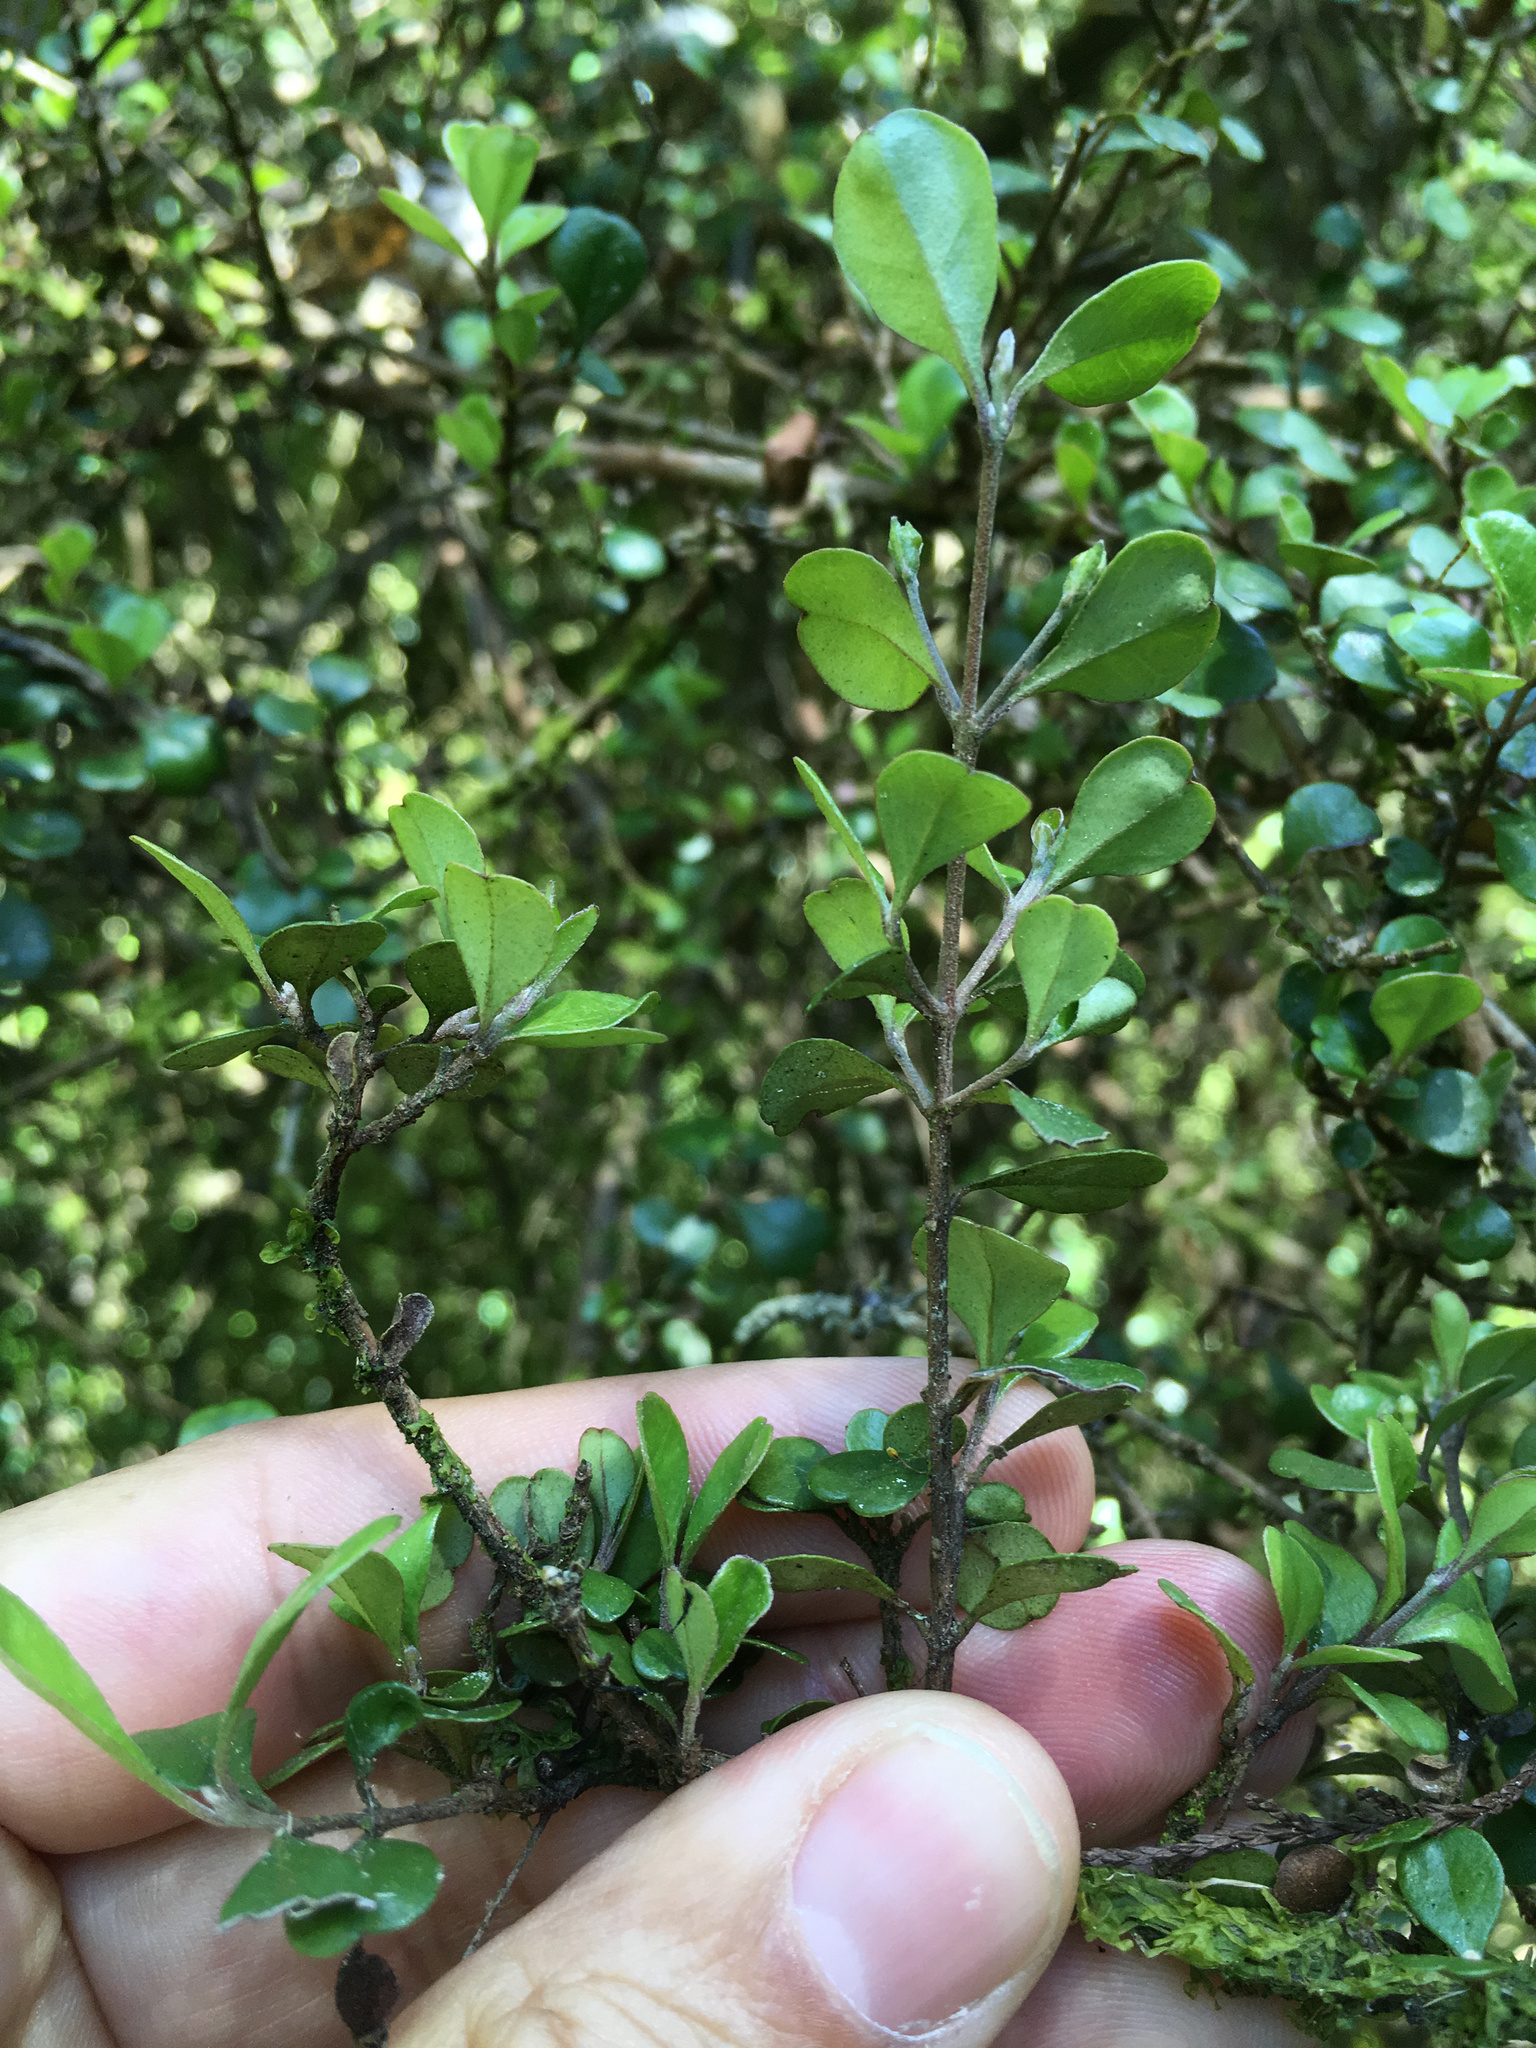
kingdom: Plantae
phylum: Tracheophyta
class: Magnoliopsida
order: Myrtales
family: Myrtaceae
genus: Lophomyrtus
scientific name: Lophomyrtus obcordata
